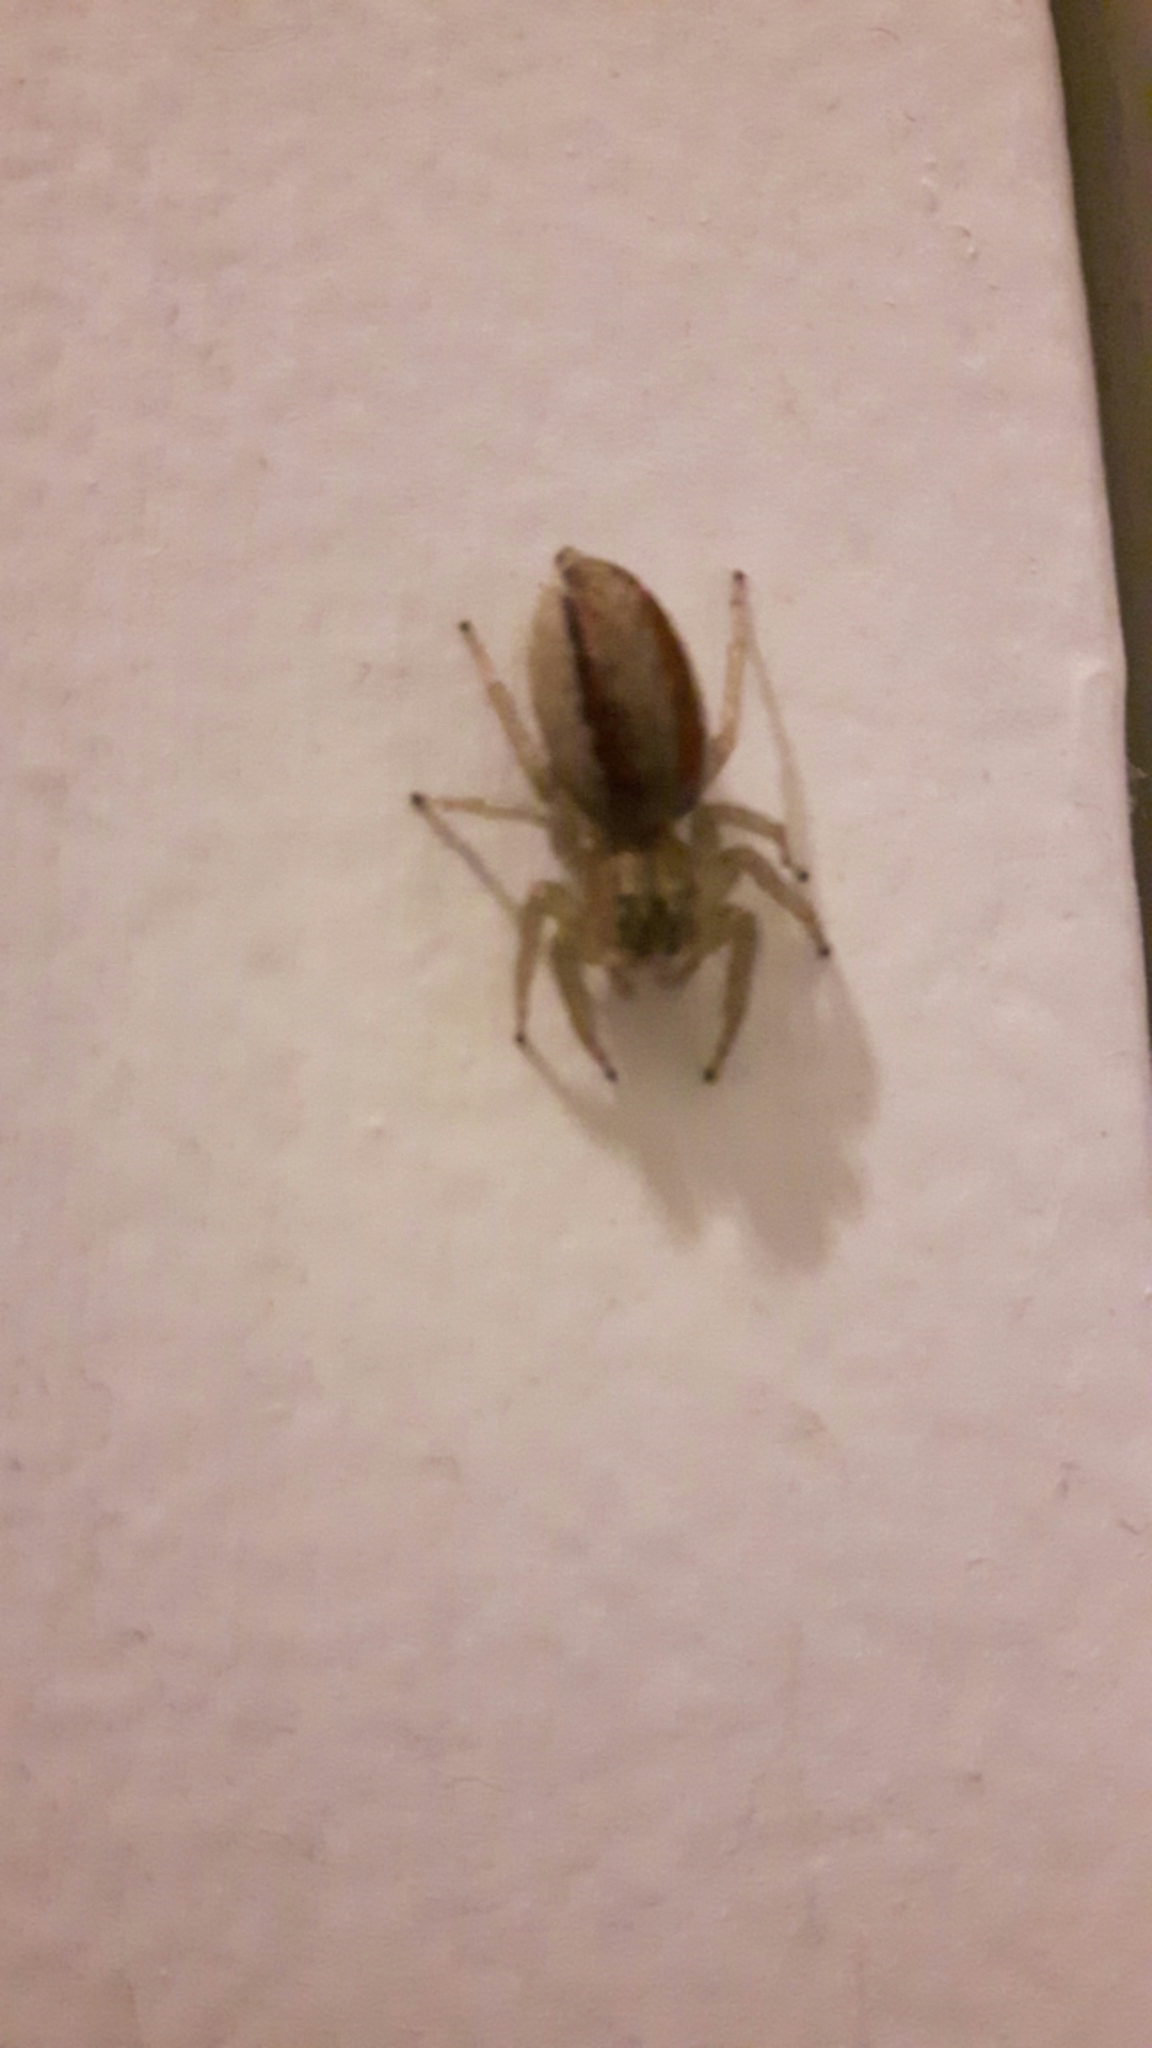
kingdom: Animalia
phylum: Arthropoda
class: Arachnida
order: Araneae
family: Salticidae
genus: Maevia
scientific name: Maevia inclemens
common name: Dimorphic jumper
